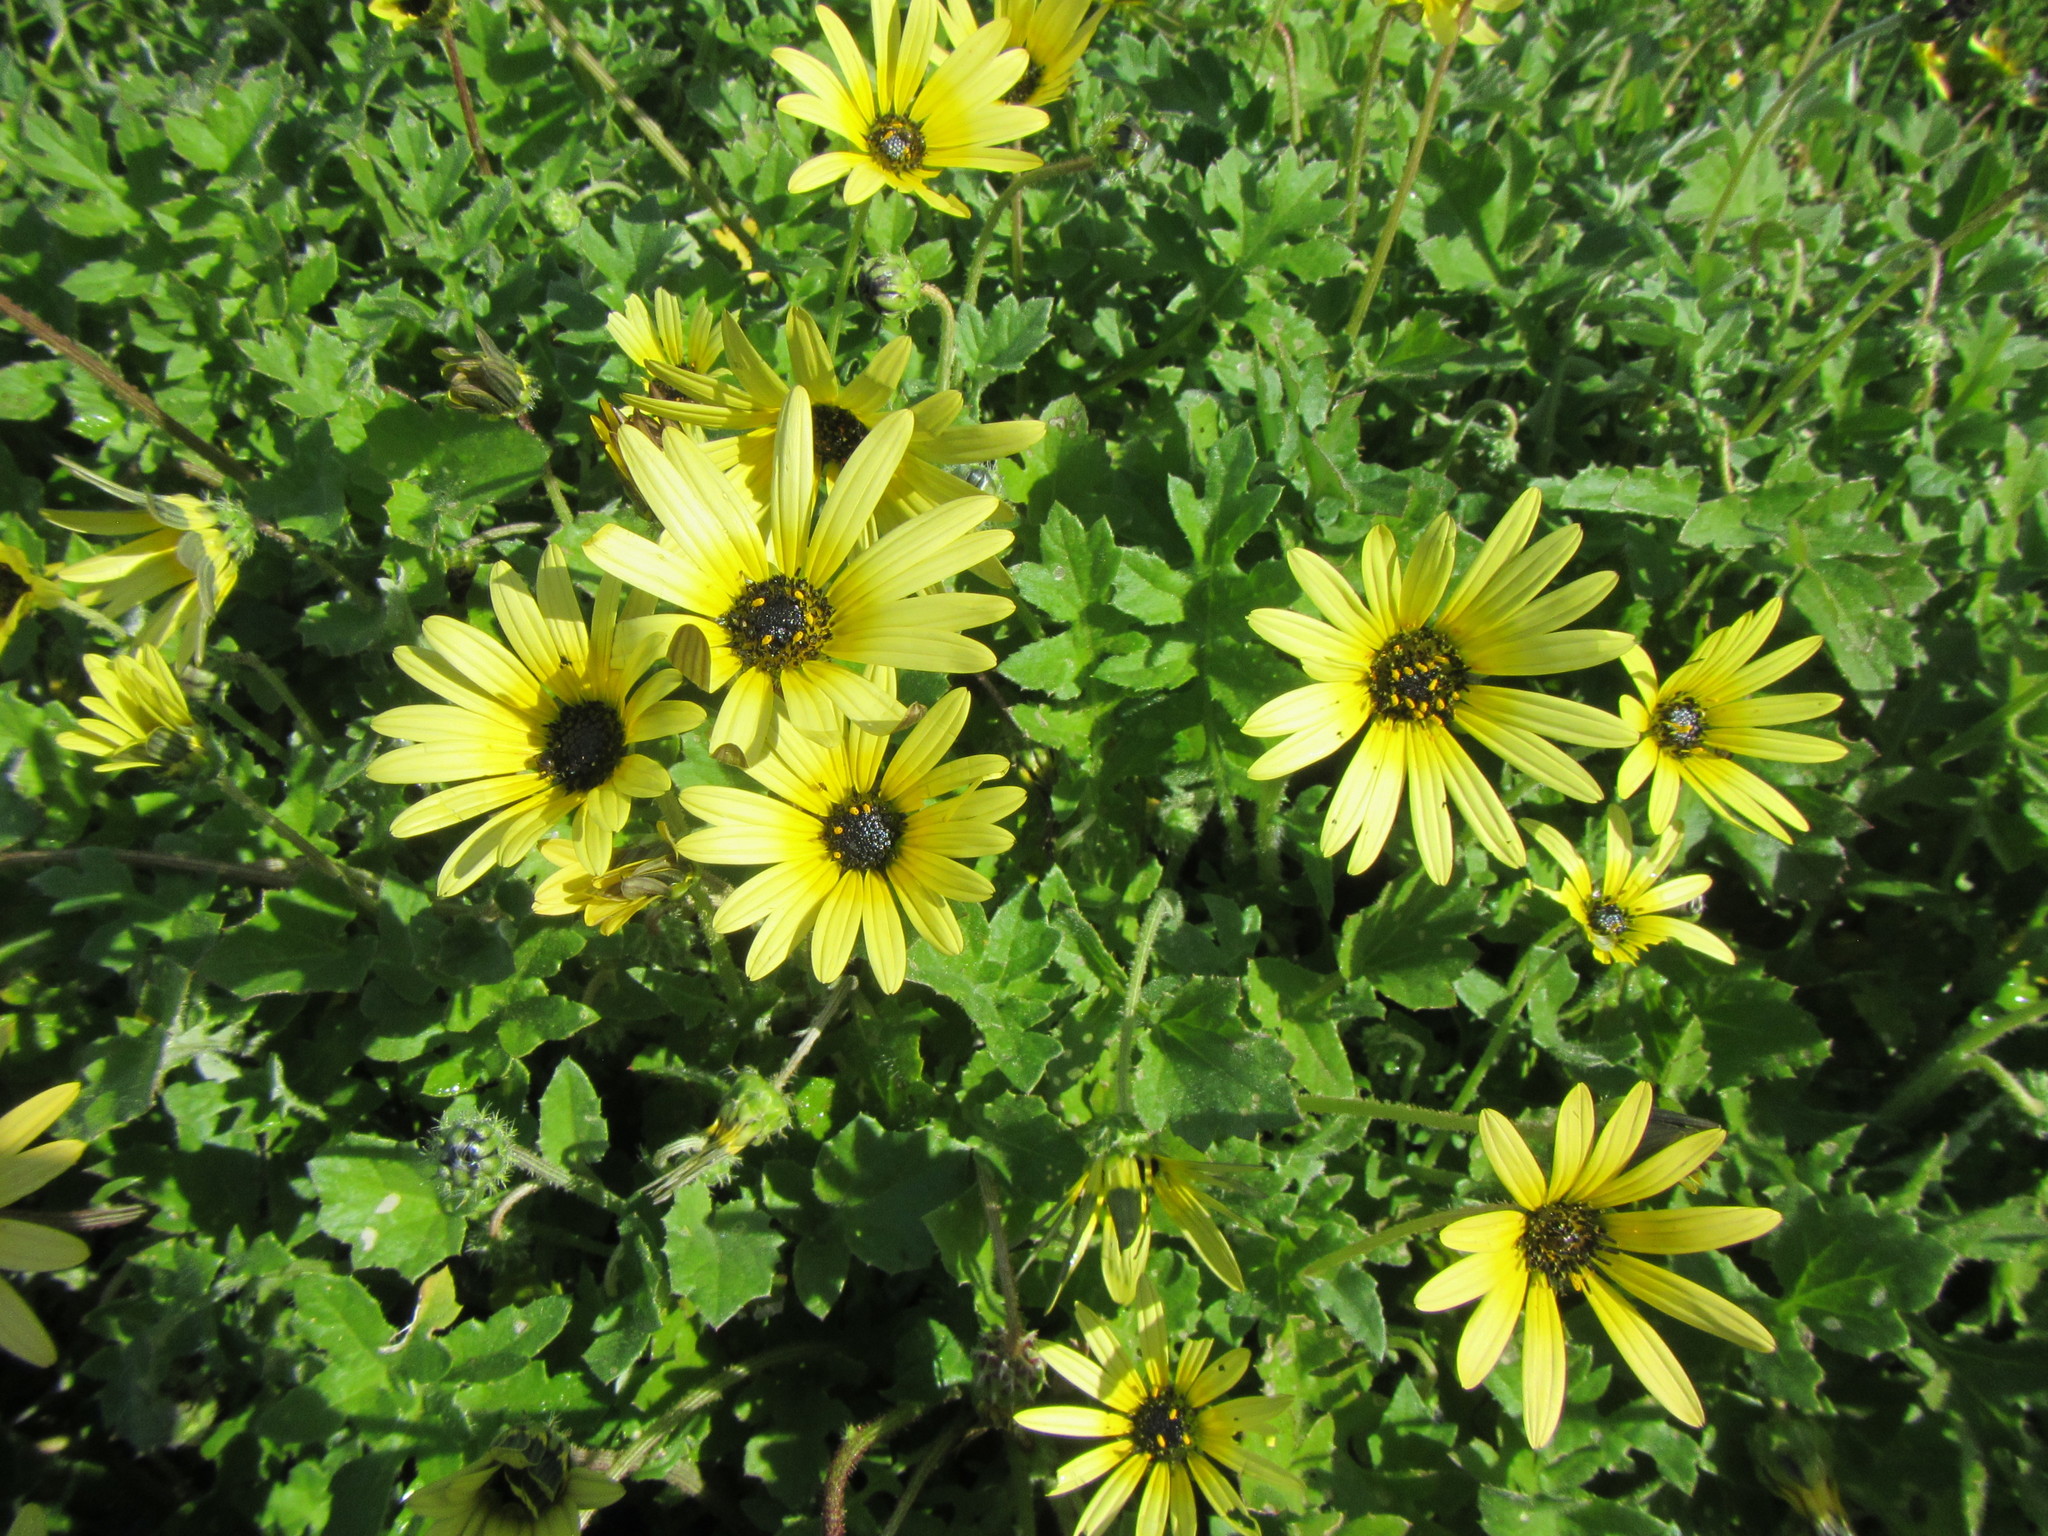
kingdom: Plantae
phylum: Tracheophyta
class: Magnoliopsida
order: Asterales
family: Asteraceae
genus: Arctotheca
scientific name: Arctotheca calendula
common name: Capeweed
